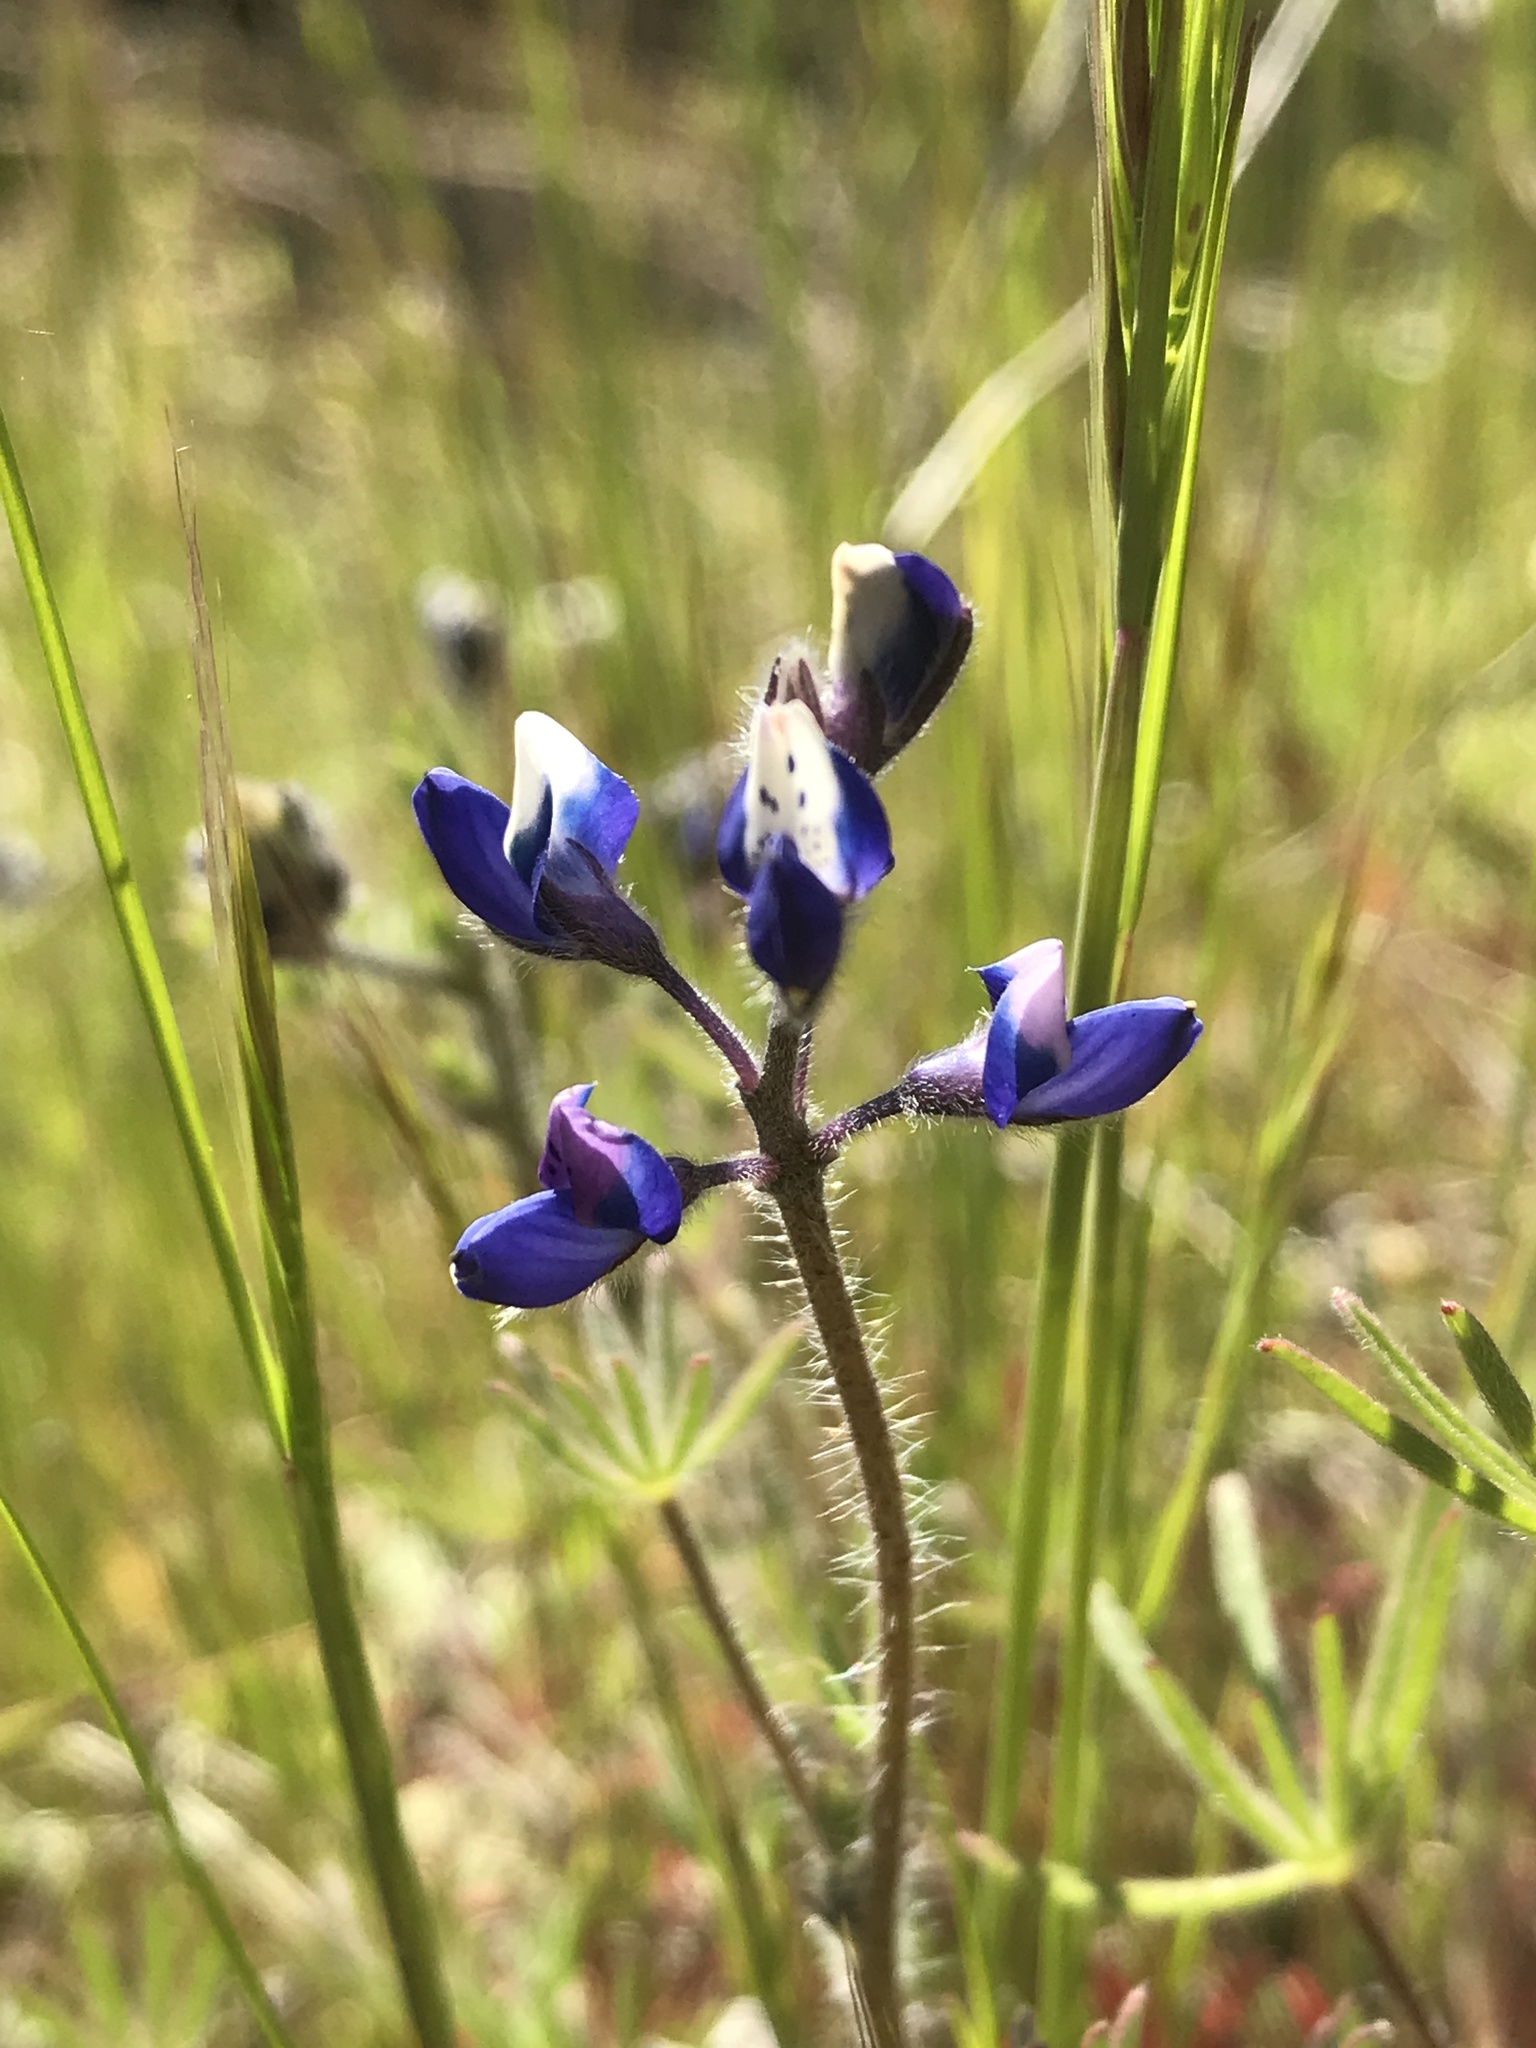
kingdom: Plantae
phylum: Tracheophyta
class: Magnoliopsida
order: Fabales
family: Fabaceae
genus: Lupinus
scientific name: Lupinus bicolor
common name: Miniature lupine
